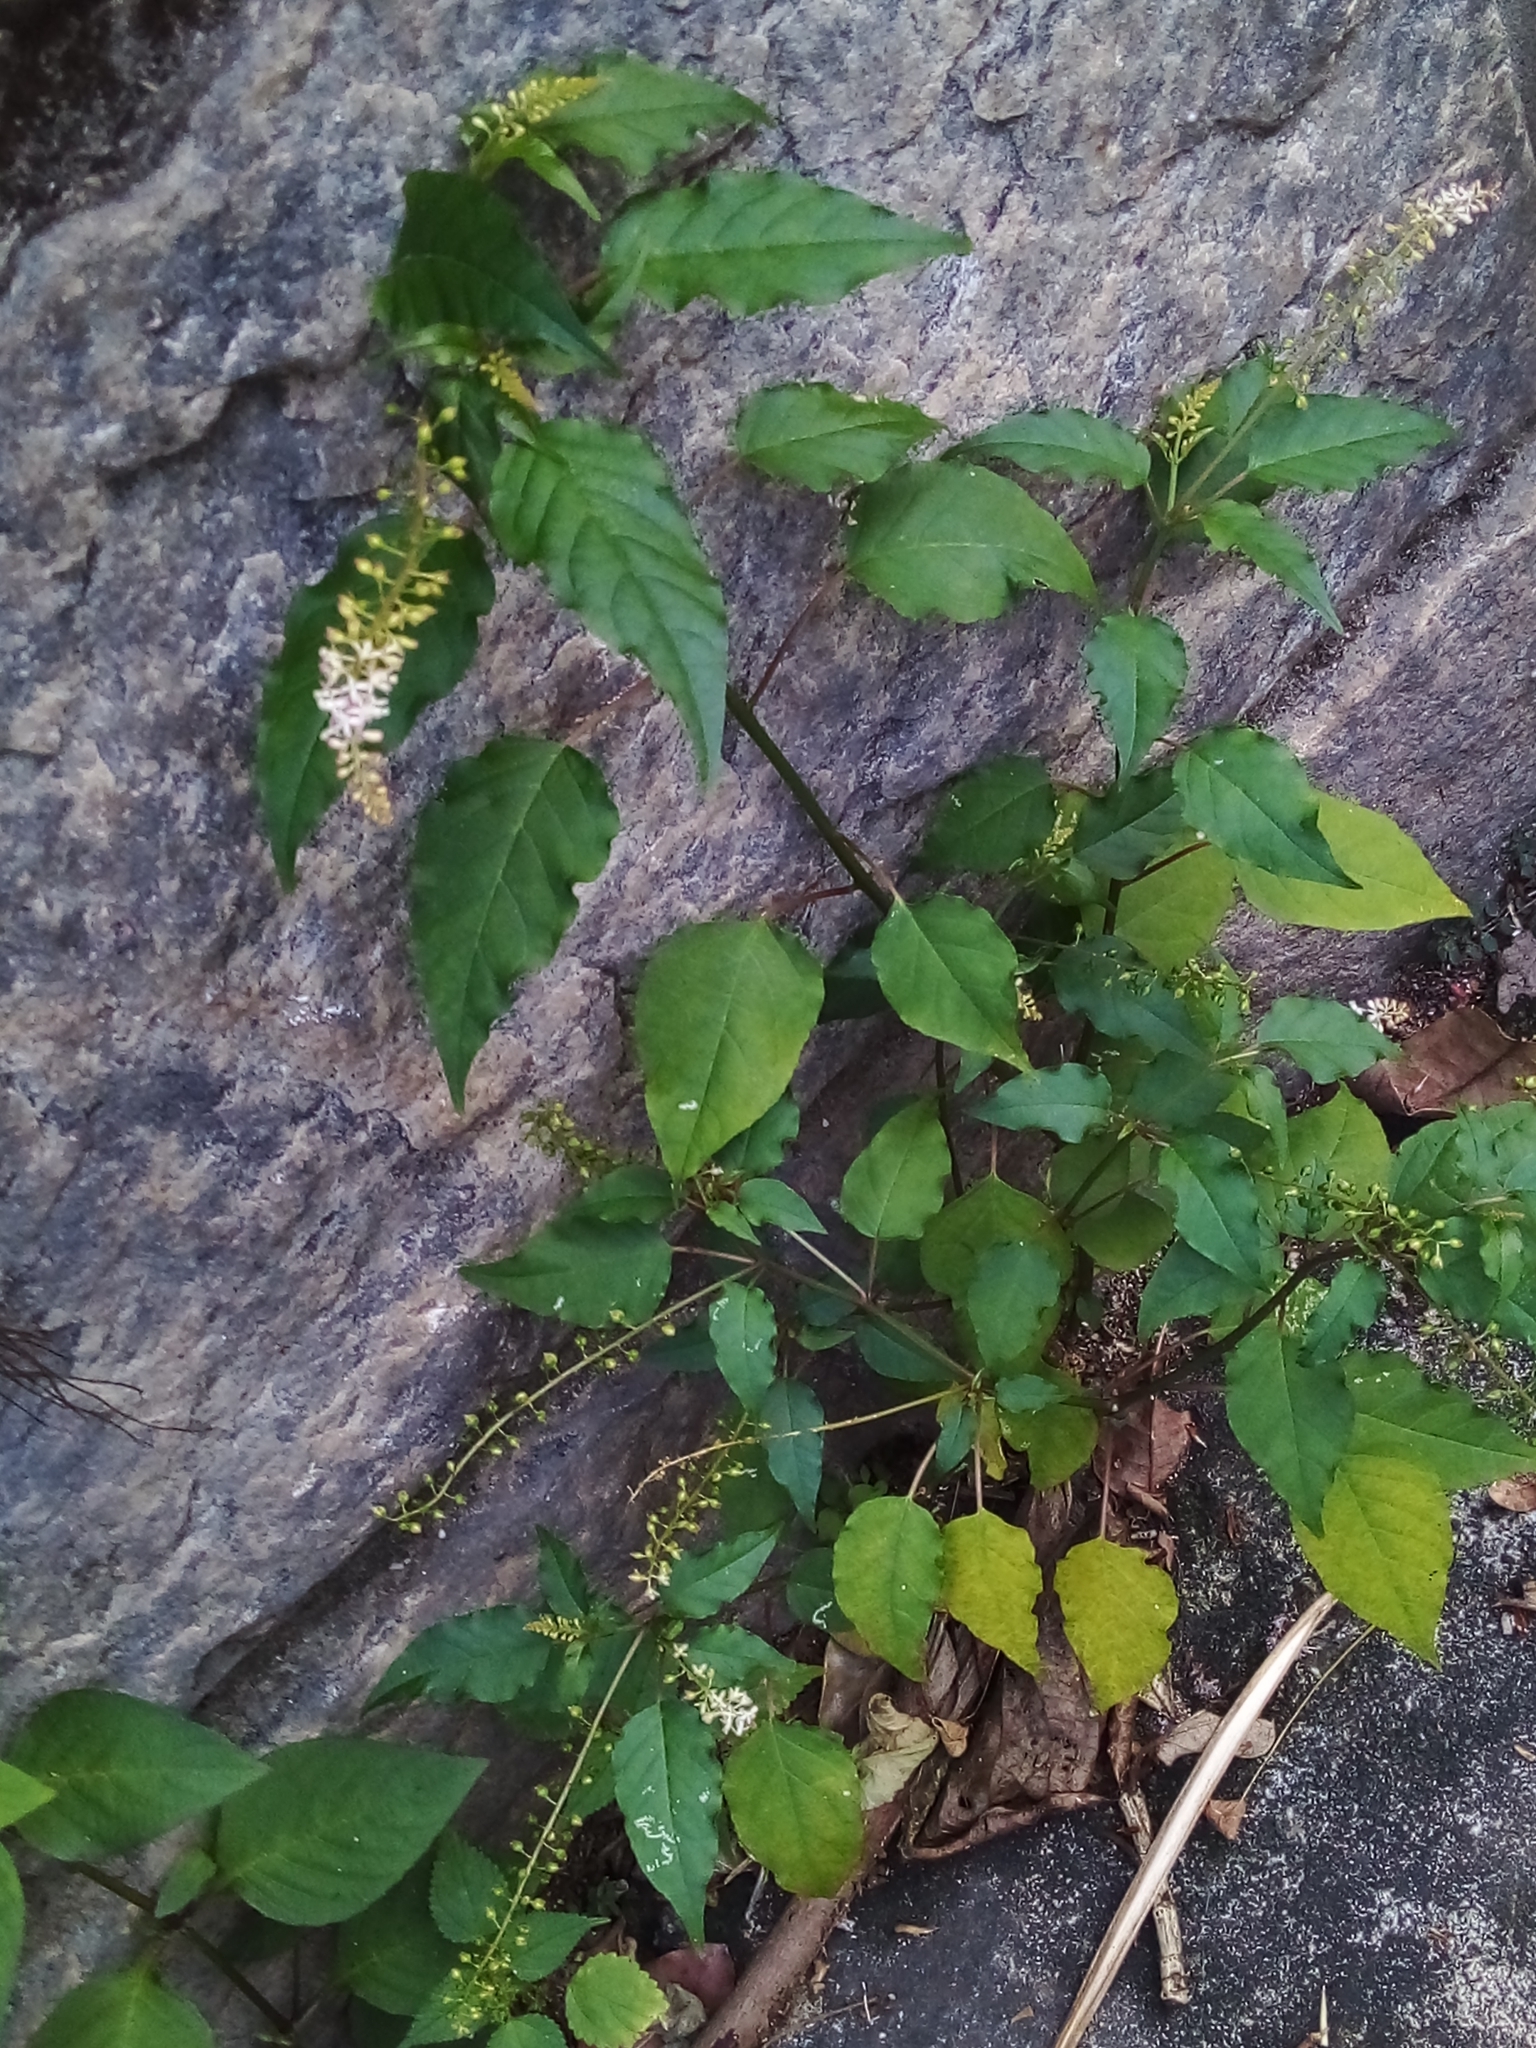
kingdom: Plantae
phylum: Tracheophyta
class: Magnoliopsida
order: Caryophyllales
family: Phytolaccaceae
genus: Rivina
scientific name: Rivina humilis
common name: Rougeplant
